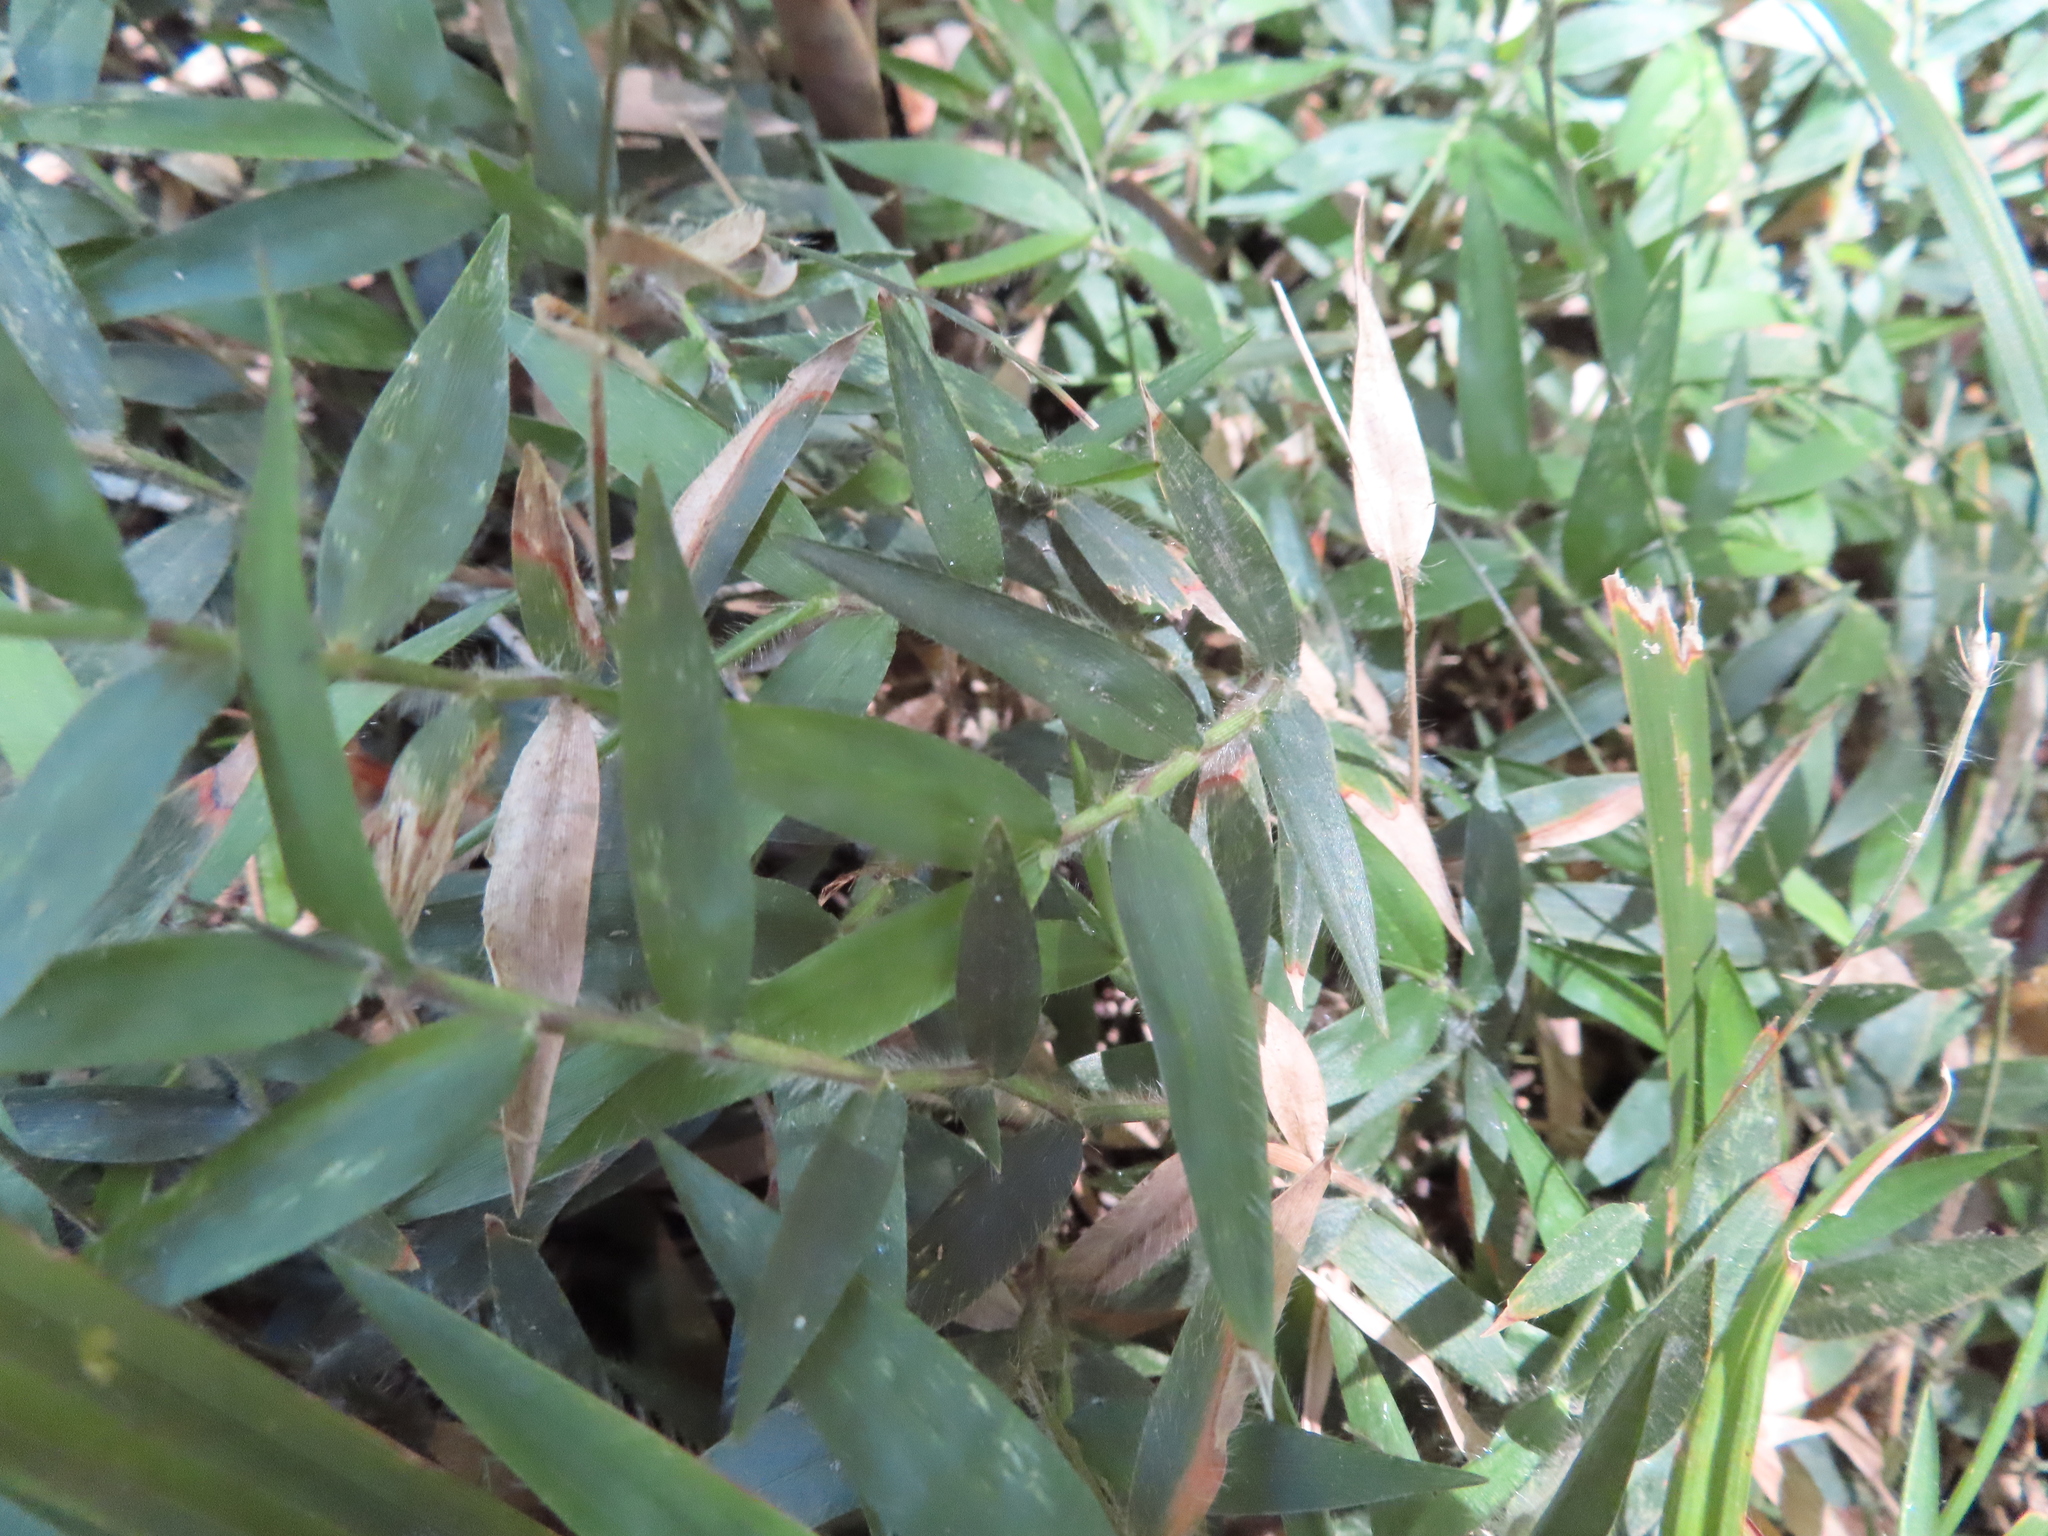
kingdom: Plantae
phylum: Tracheophyta
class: Liliopsida
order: Poales
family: Poaceae
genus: Oplismenus
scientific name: Oplismenus hirtellus
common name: Basketgrass
